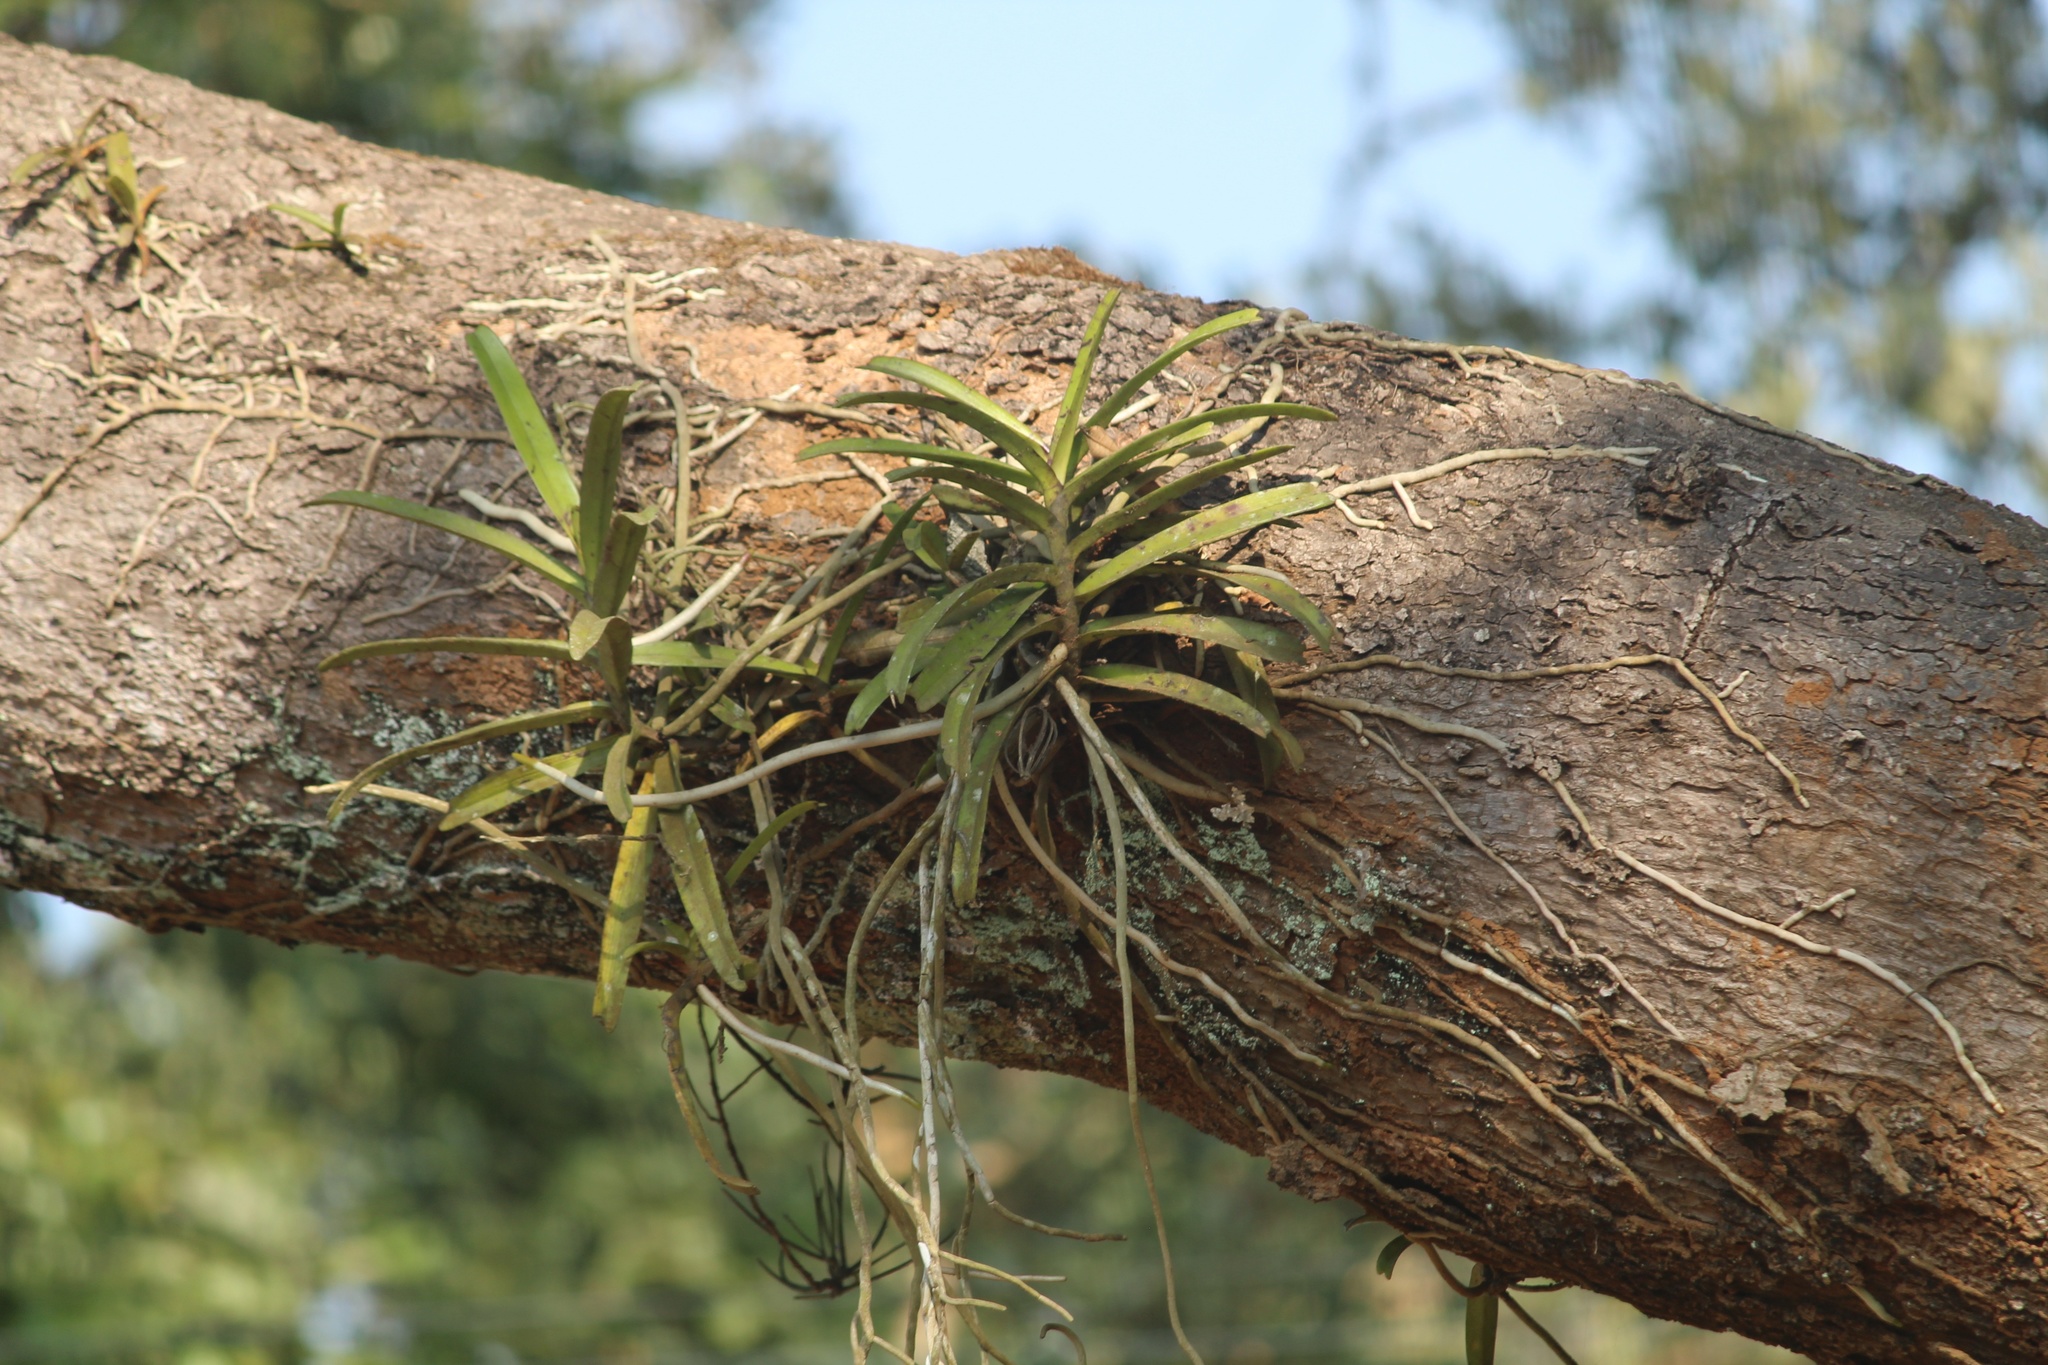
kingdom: Plantae
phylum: Tracheophyta
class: Liliopsida
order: Asparagales
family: Orchidaceae
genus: Acampe
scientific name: Acampe carinata
